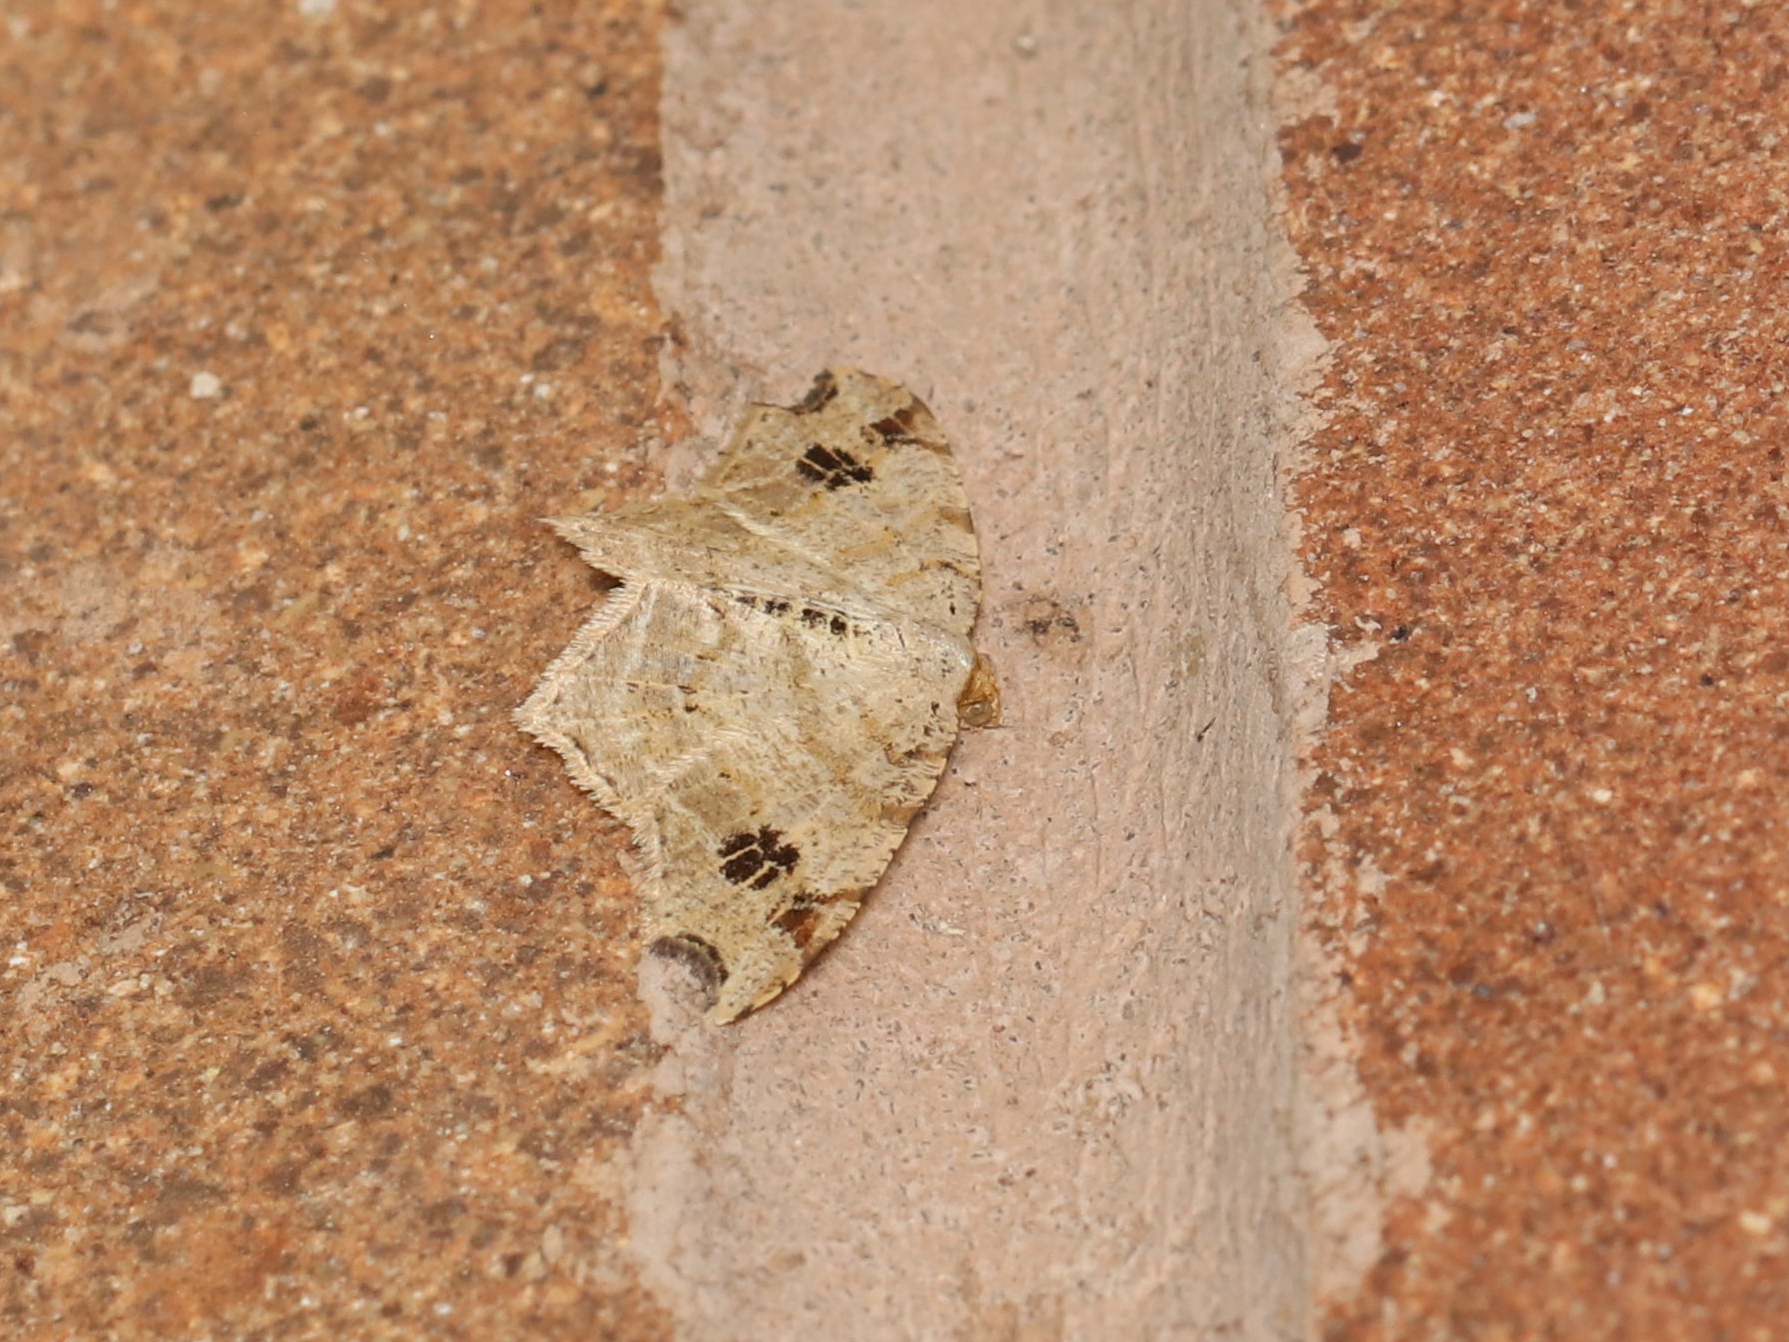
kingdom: Animalia
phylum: Arthropoda
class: Insecta
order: Lepidoptera
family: Geometridae
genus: Macaria
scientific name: Macaria aemulataria
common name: Common angle
